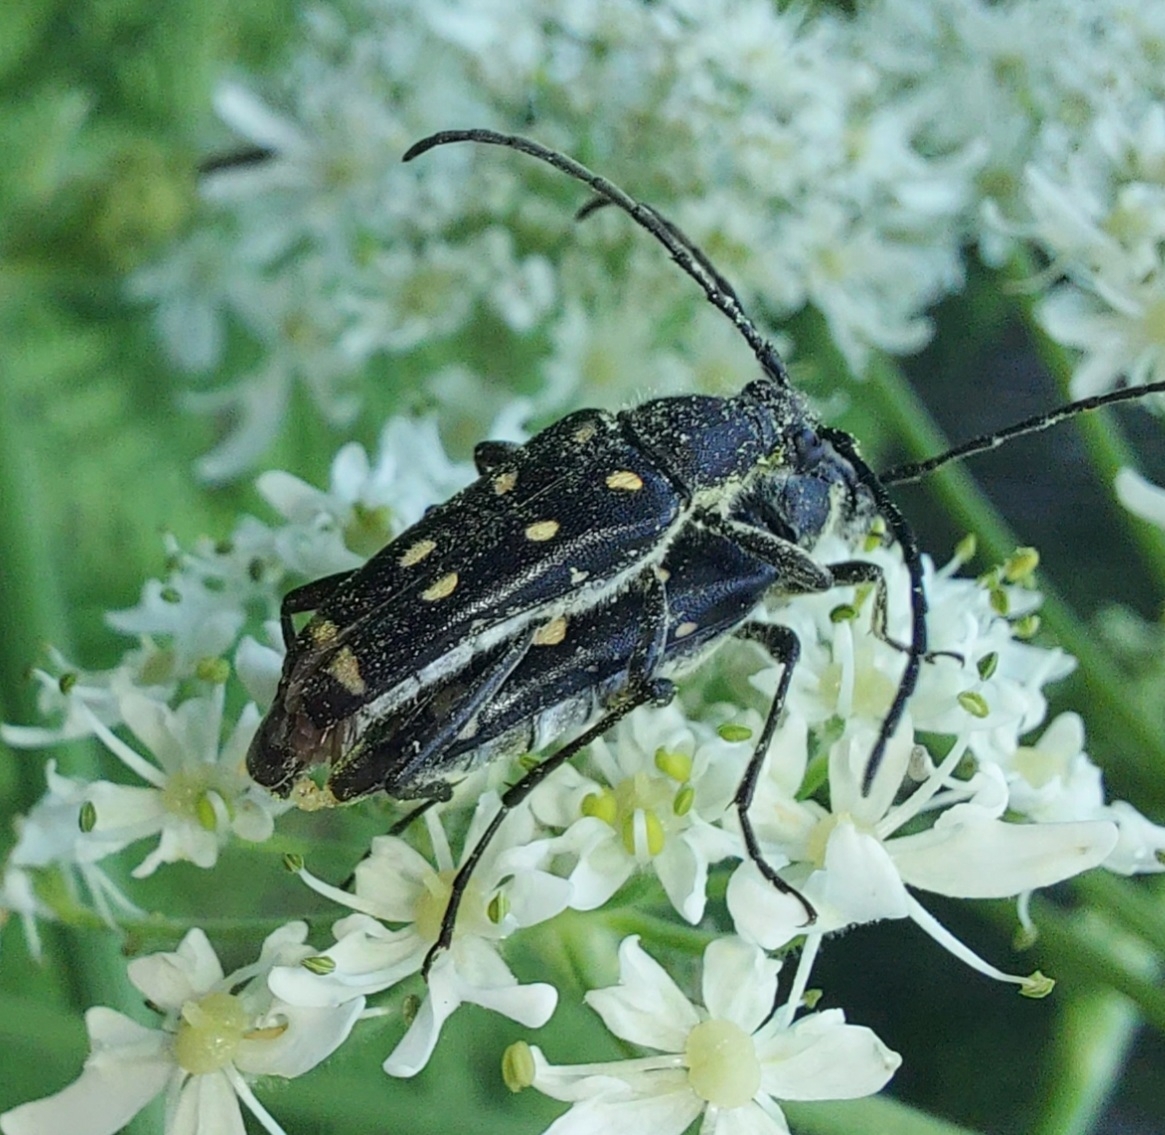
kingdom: Animalia
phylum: Arthropoda
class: Insecta
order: Coleoptera
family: Cerambycidae
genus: Leptura
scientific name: Leptura duodecimguttata
